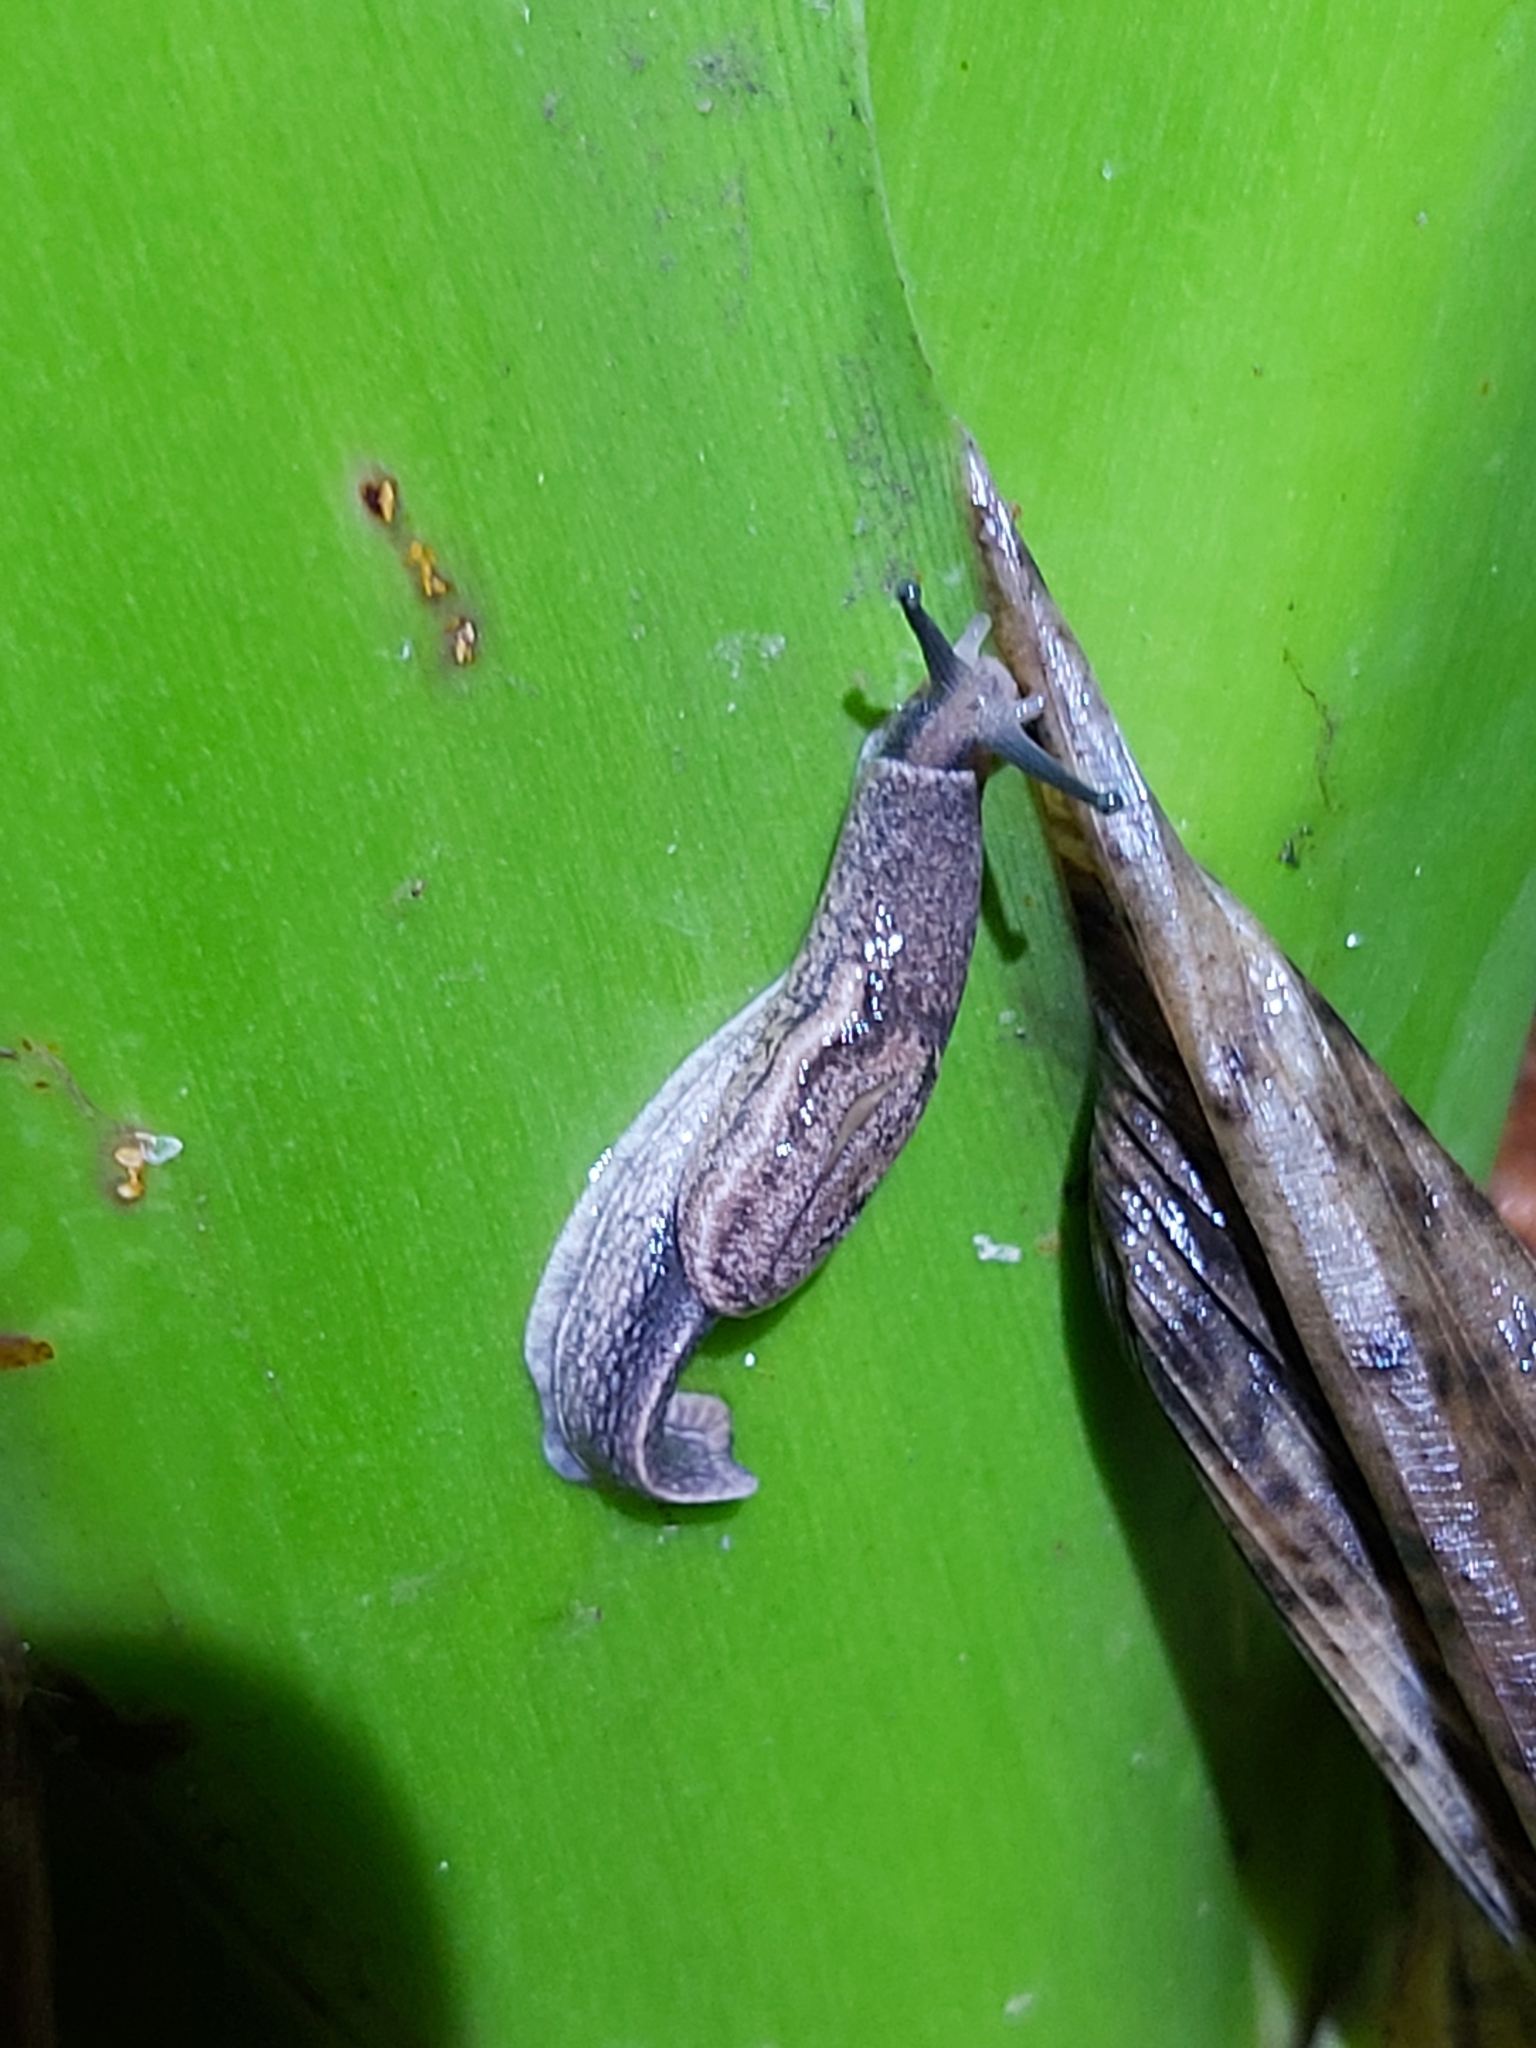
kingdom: Animalia
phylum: Mollusca
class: Gastropoda
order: Stylommatophora
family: Ariophantidae
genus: Parmarion
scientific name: Parmarion martensi
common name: Semi-slug
